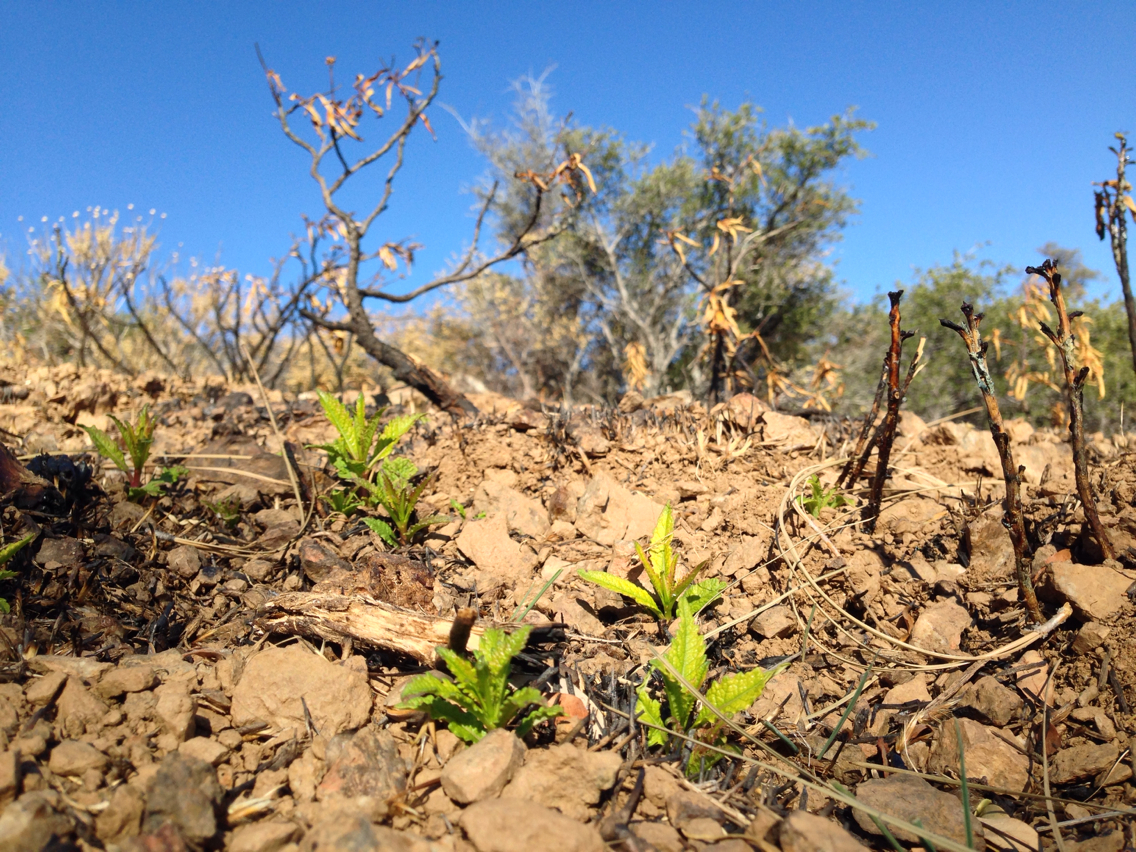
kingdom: Plantae
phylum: Tracheophyta
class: Magnoliopsida
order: Boraginales
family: Namaceae
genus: Eriodictyon
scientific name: Eriodictyon californicum
